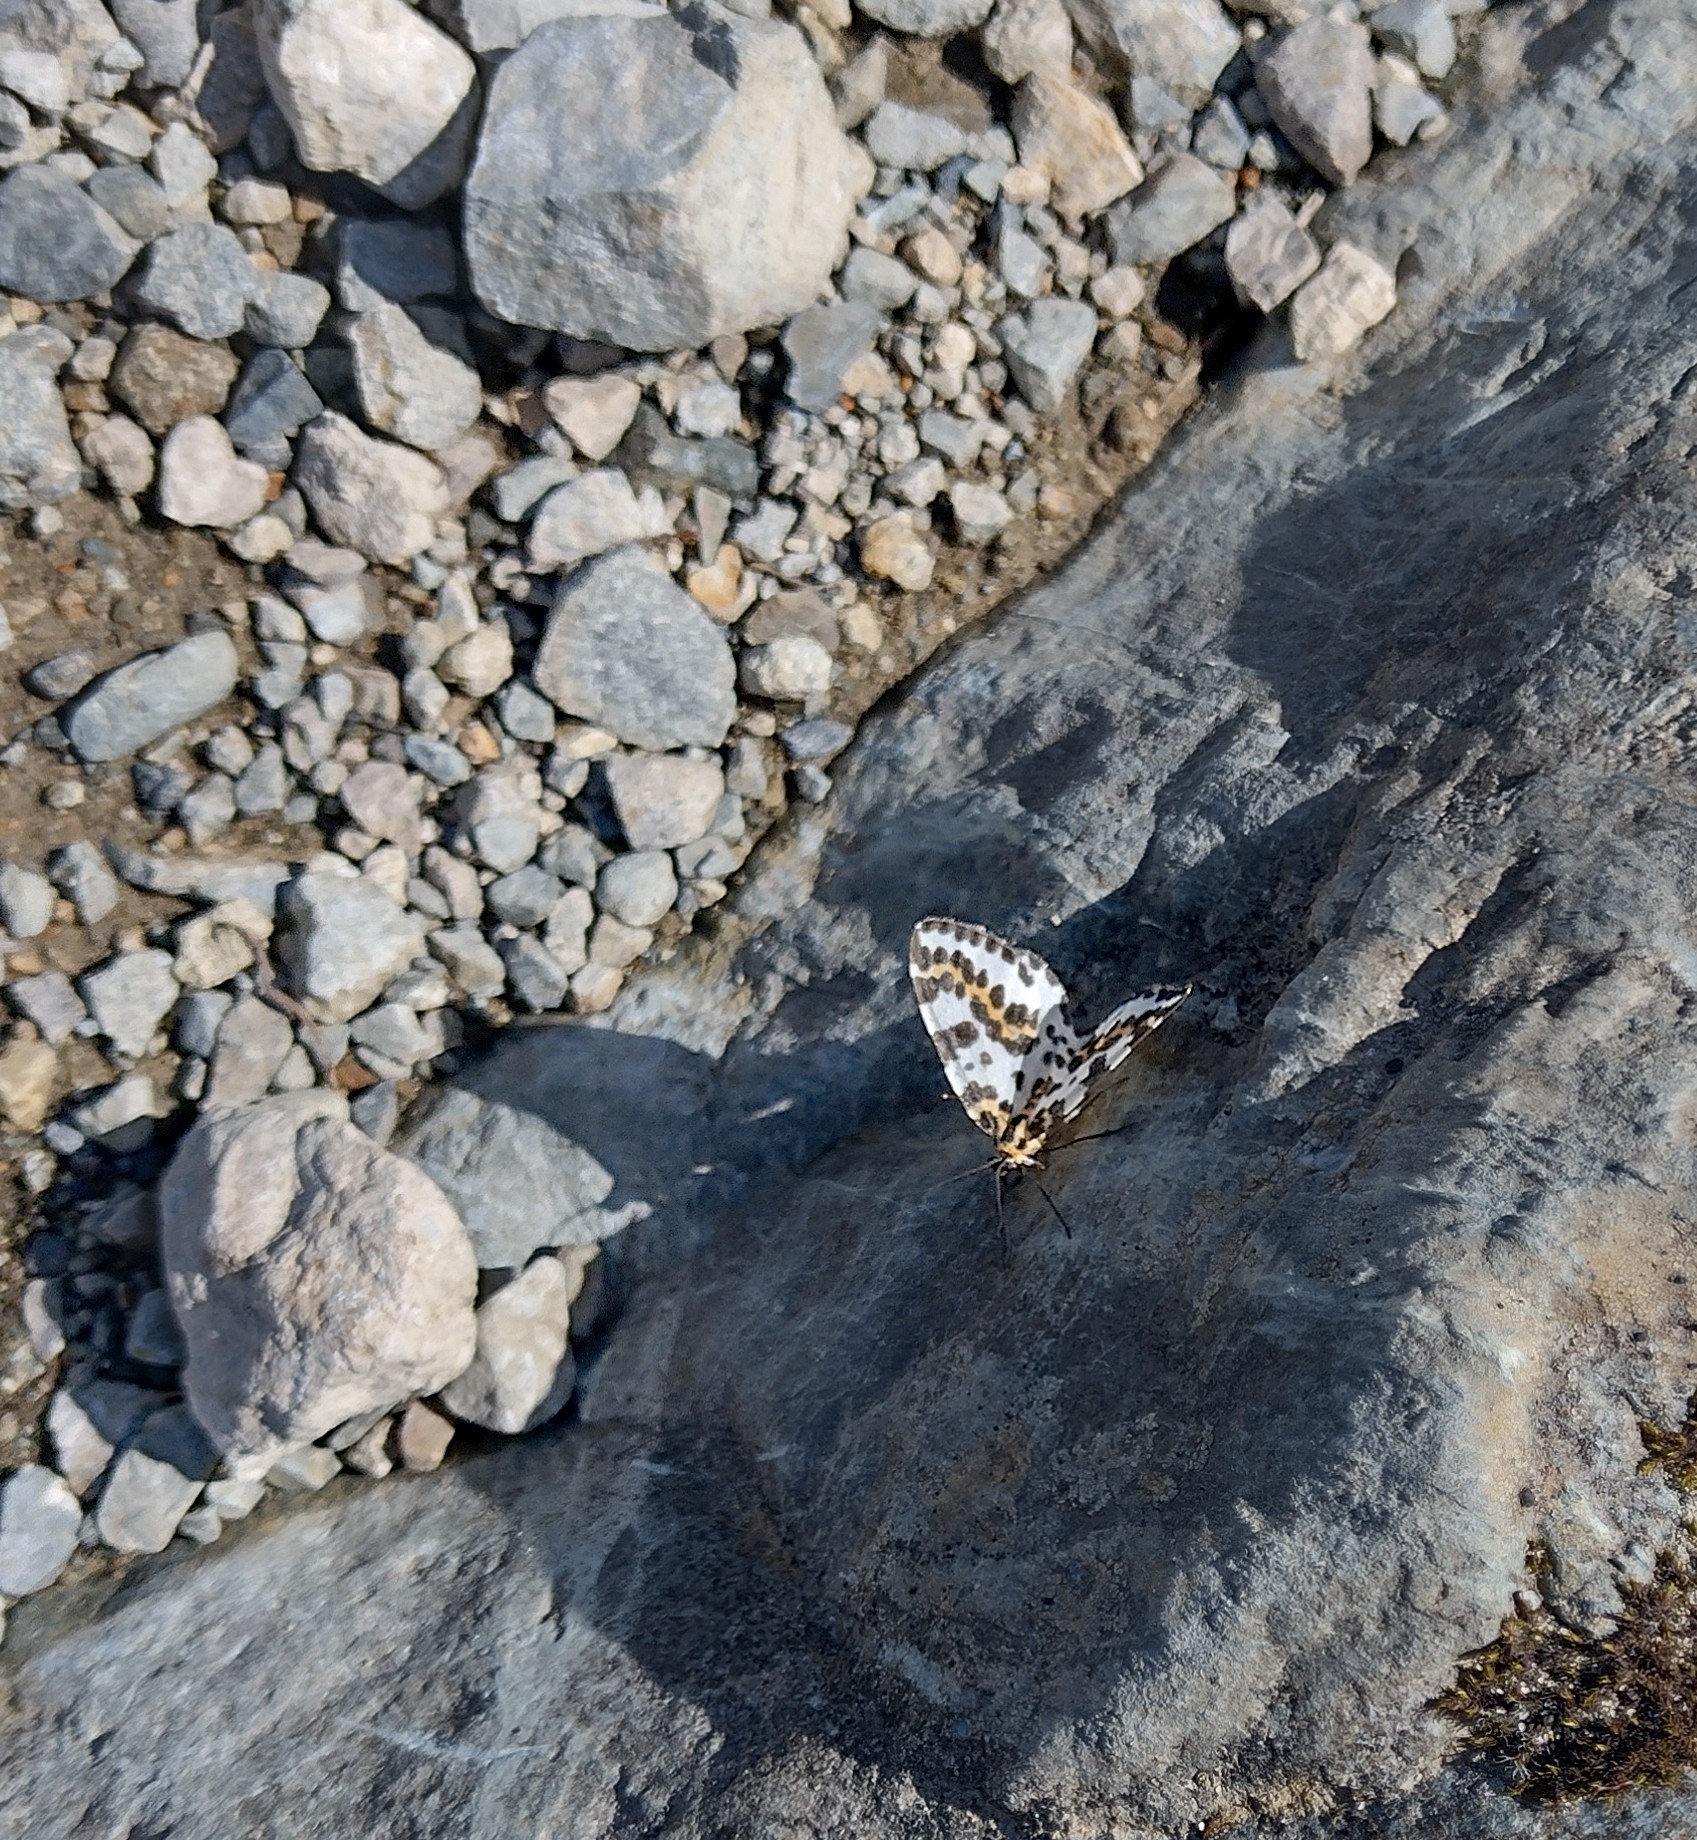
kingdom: Animalia
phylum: Arthropoda
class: Insecta
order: Lepidoptera
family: Geometridae
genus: Abraxas
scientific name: Abraxas grossulariata
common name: Magpie
